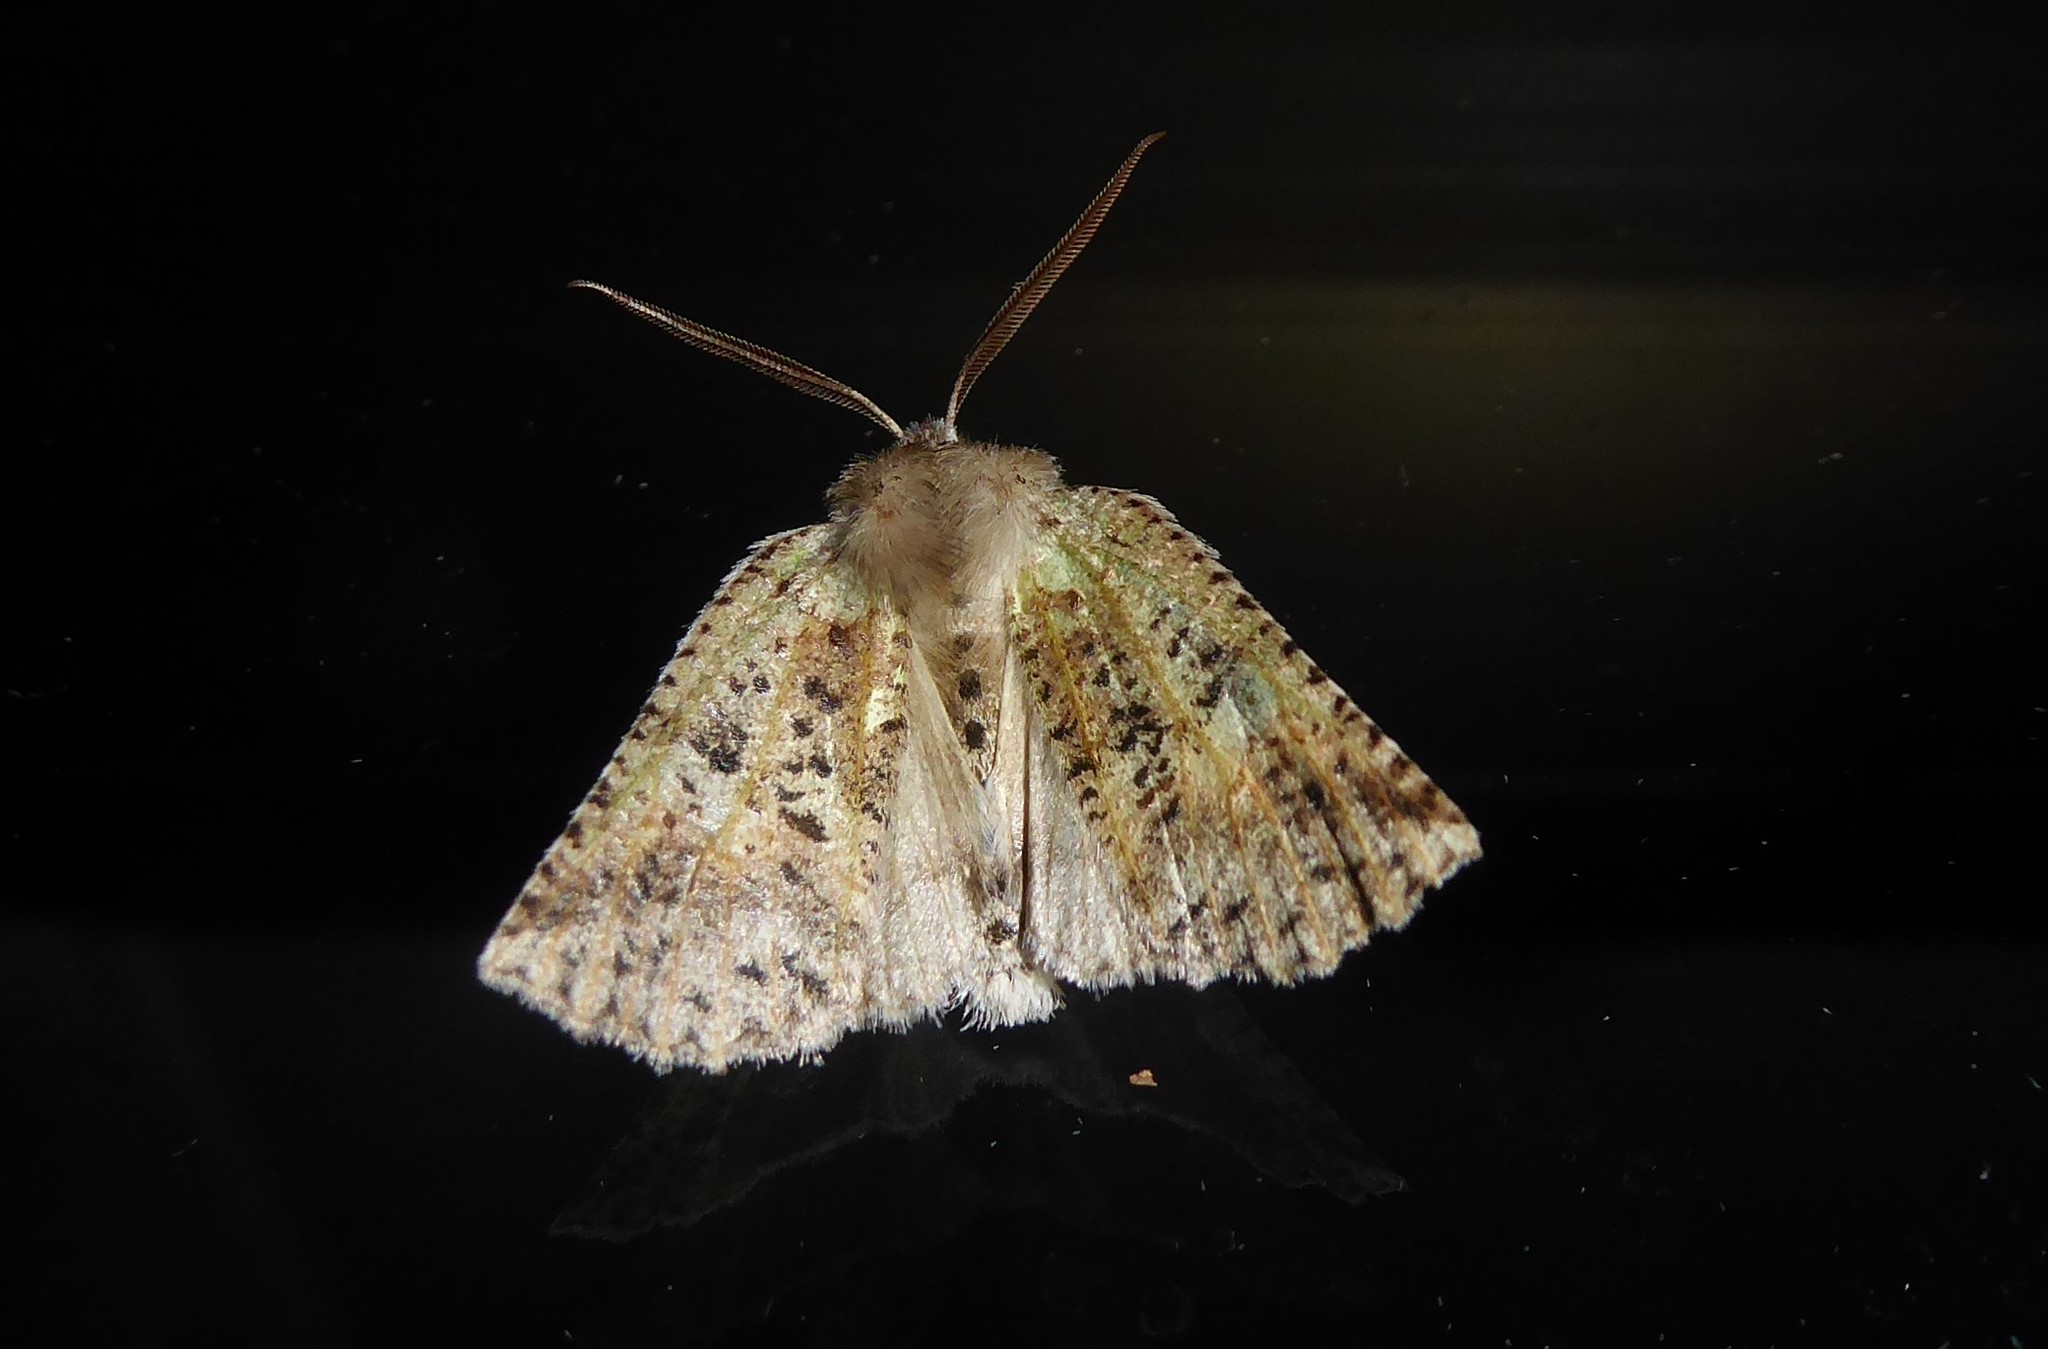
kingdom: Animalia
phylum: Arthropoda
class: Insecta
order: Lepidoptera
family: Geometridae
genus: Declana
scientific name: Declana floccosa
